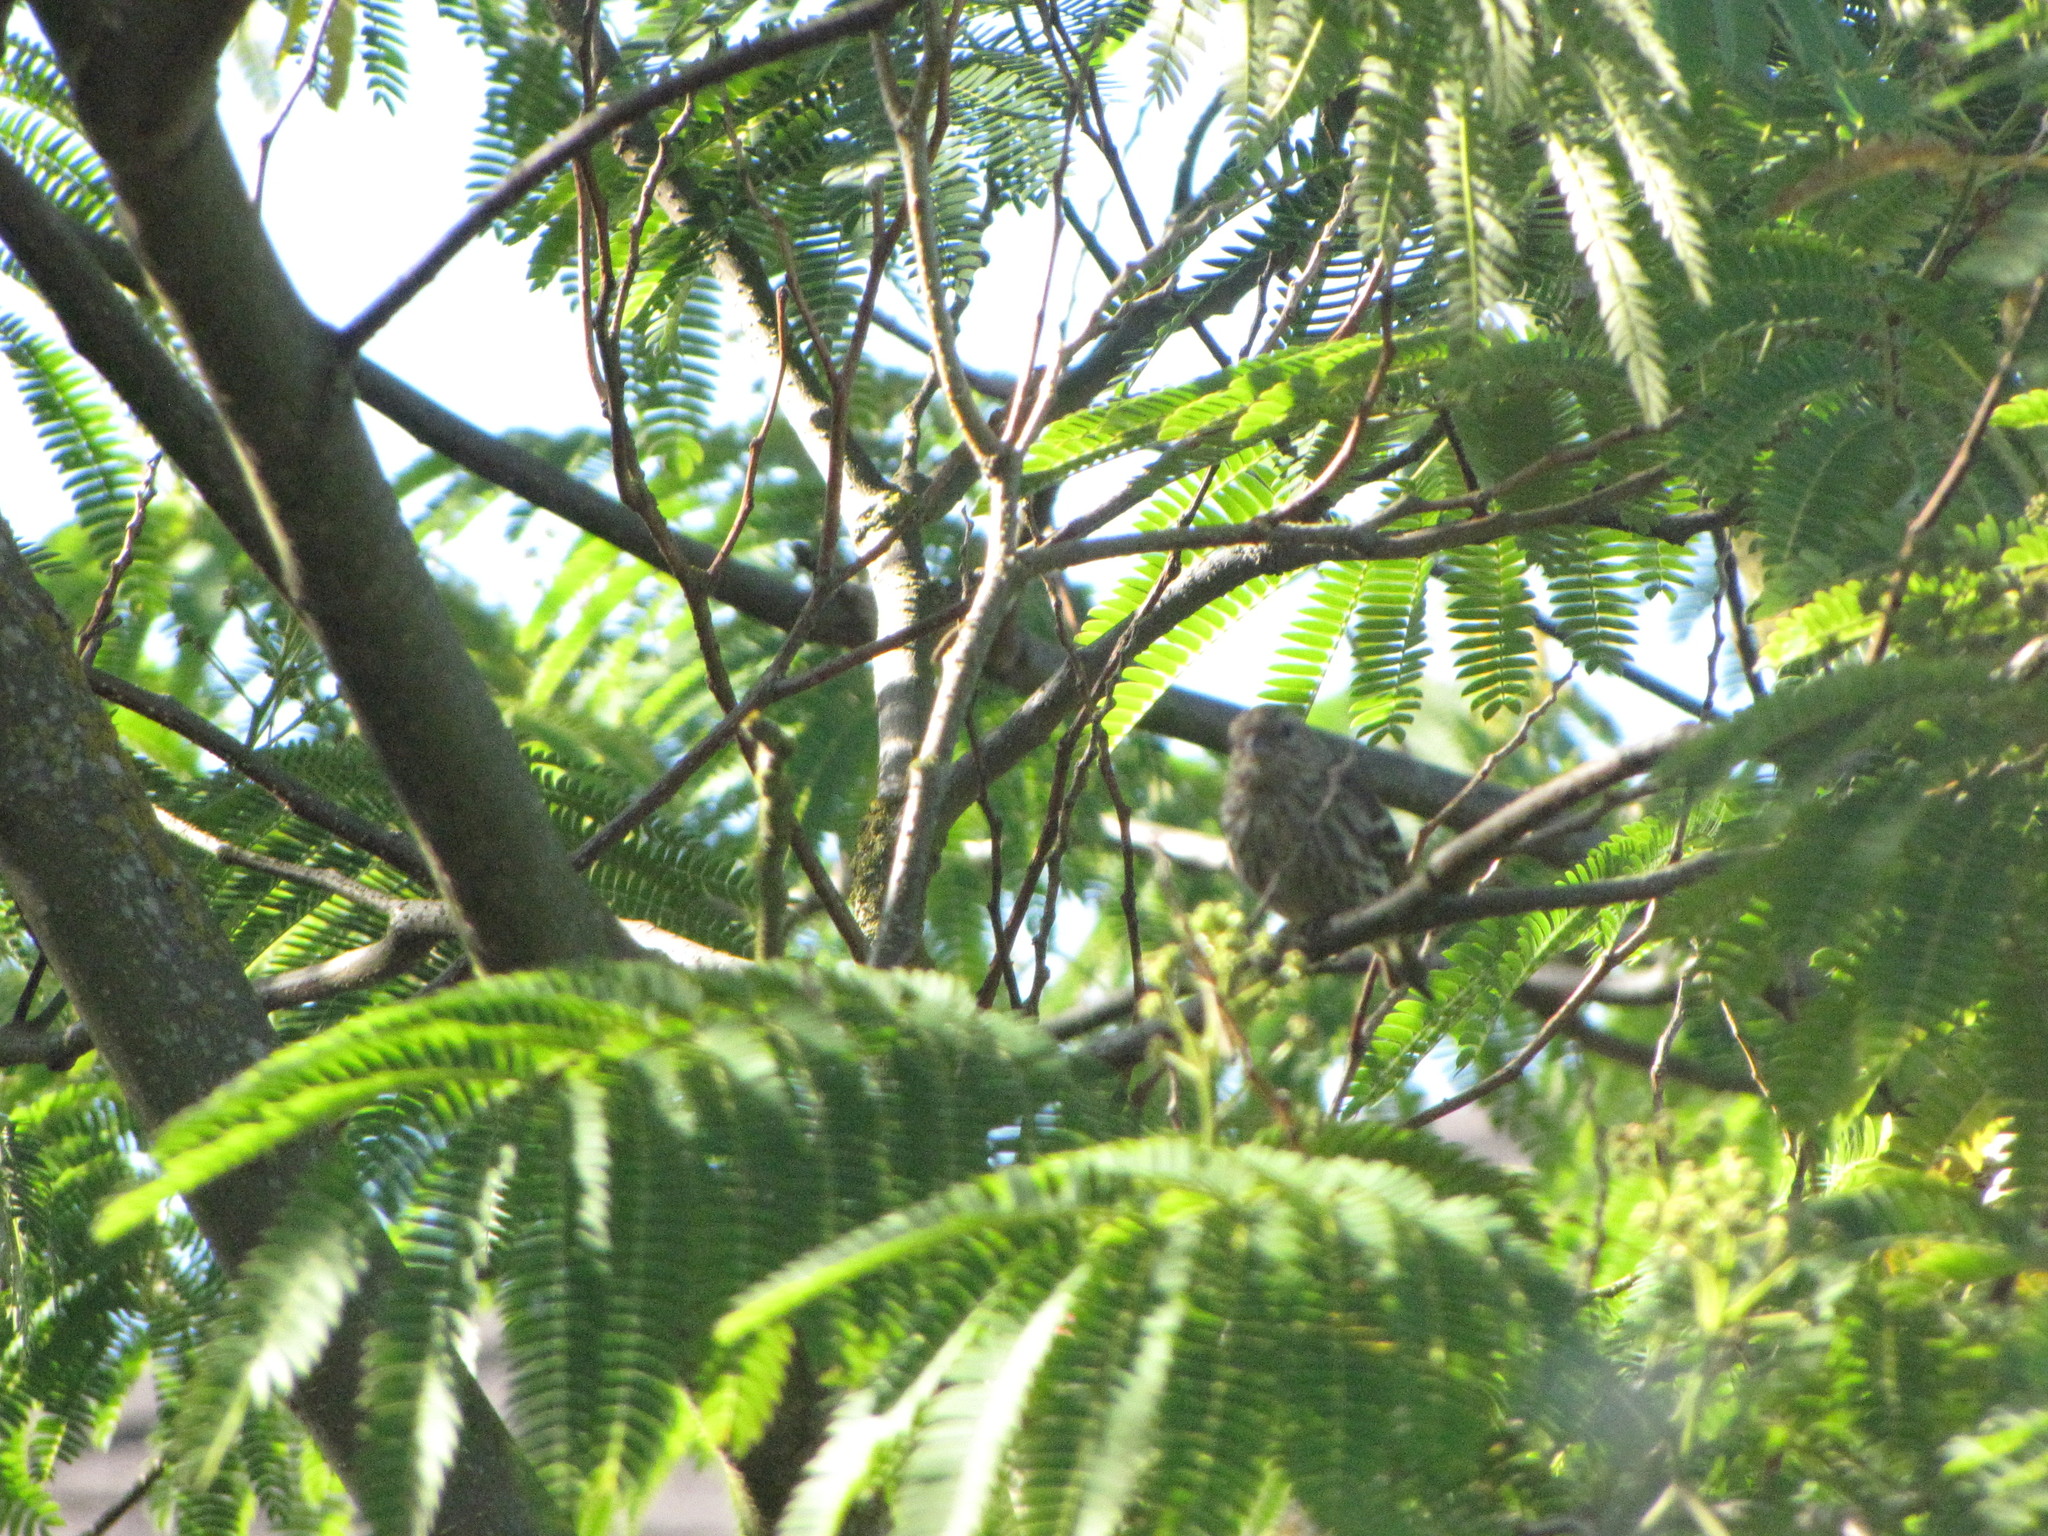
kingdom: Animalia
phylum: Chordata
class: Aves
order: Passeriformes
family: Fringillidae
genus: Haemorhous
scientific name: Haemorhous mexicanus
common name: House finch
